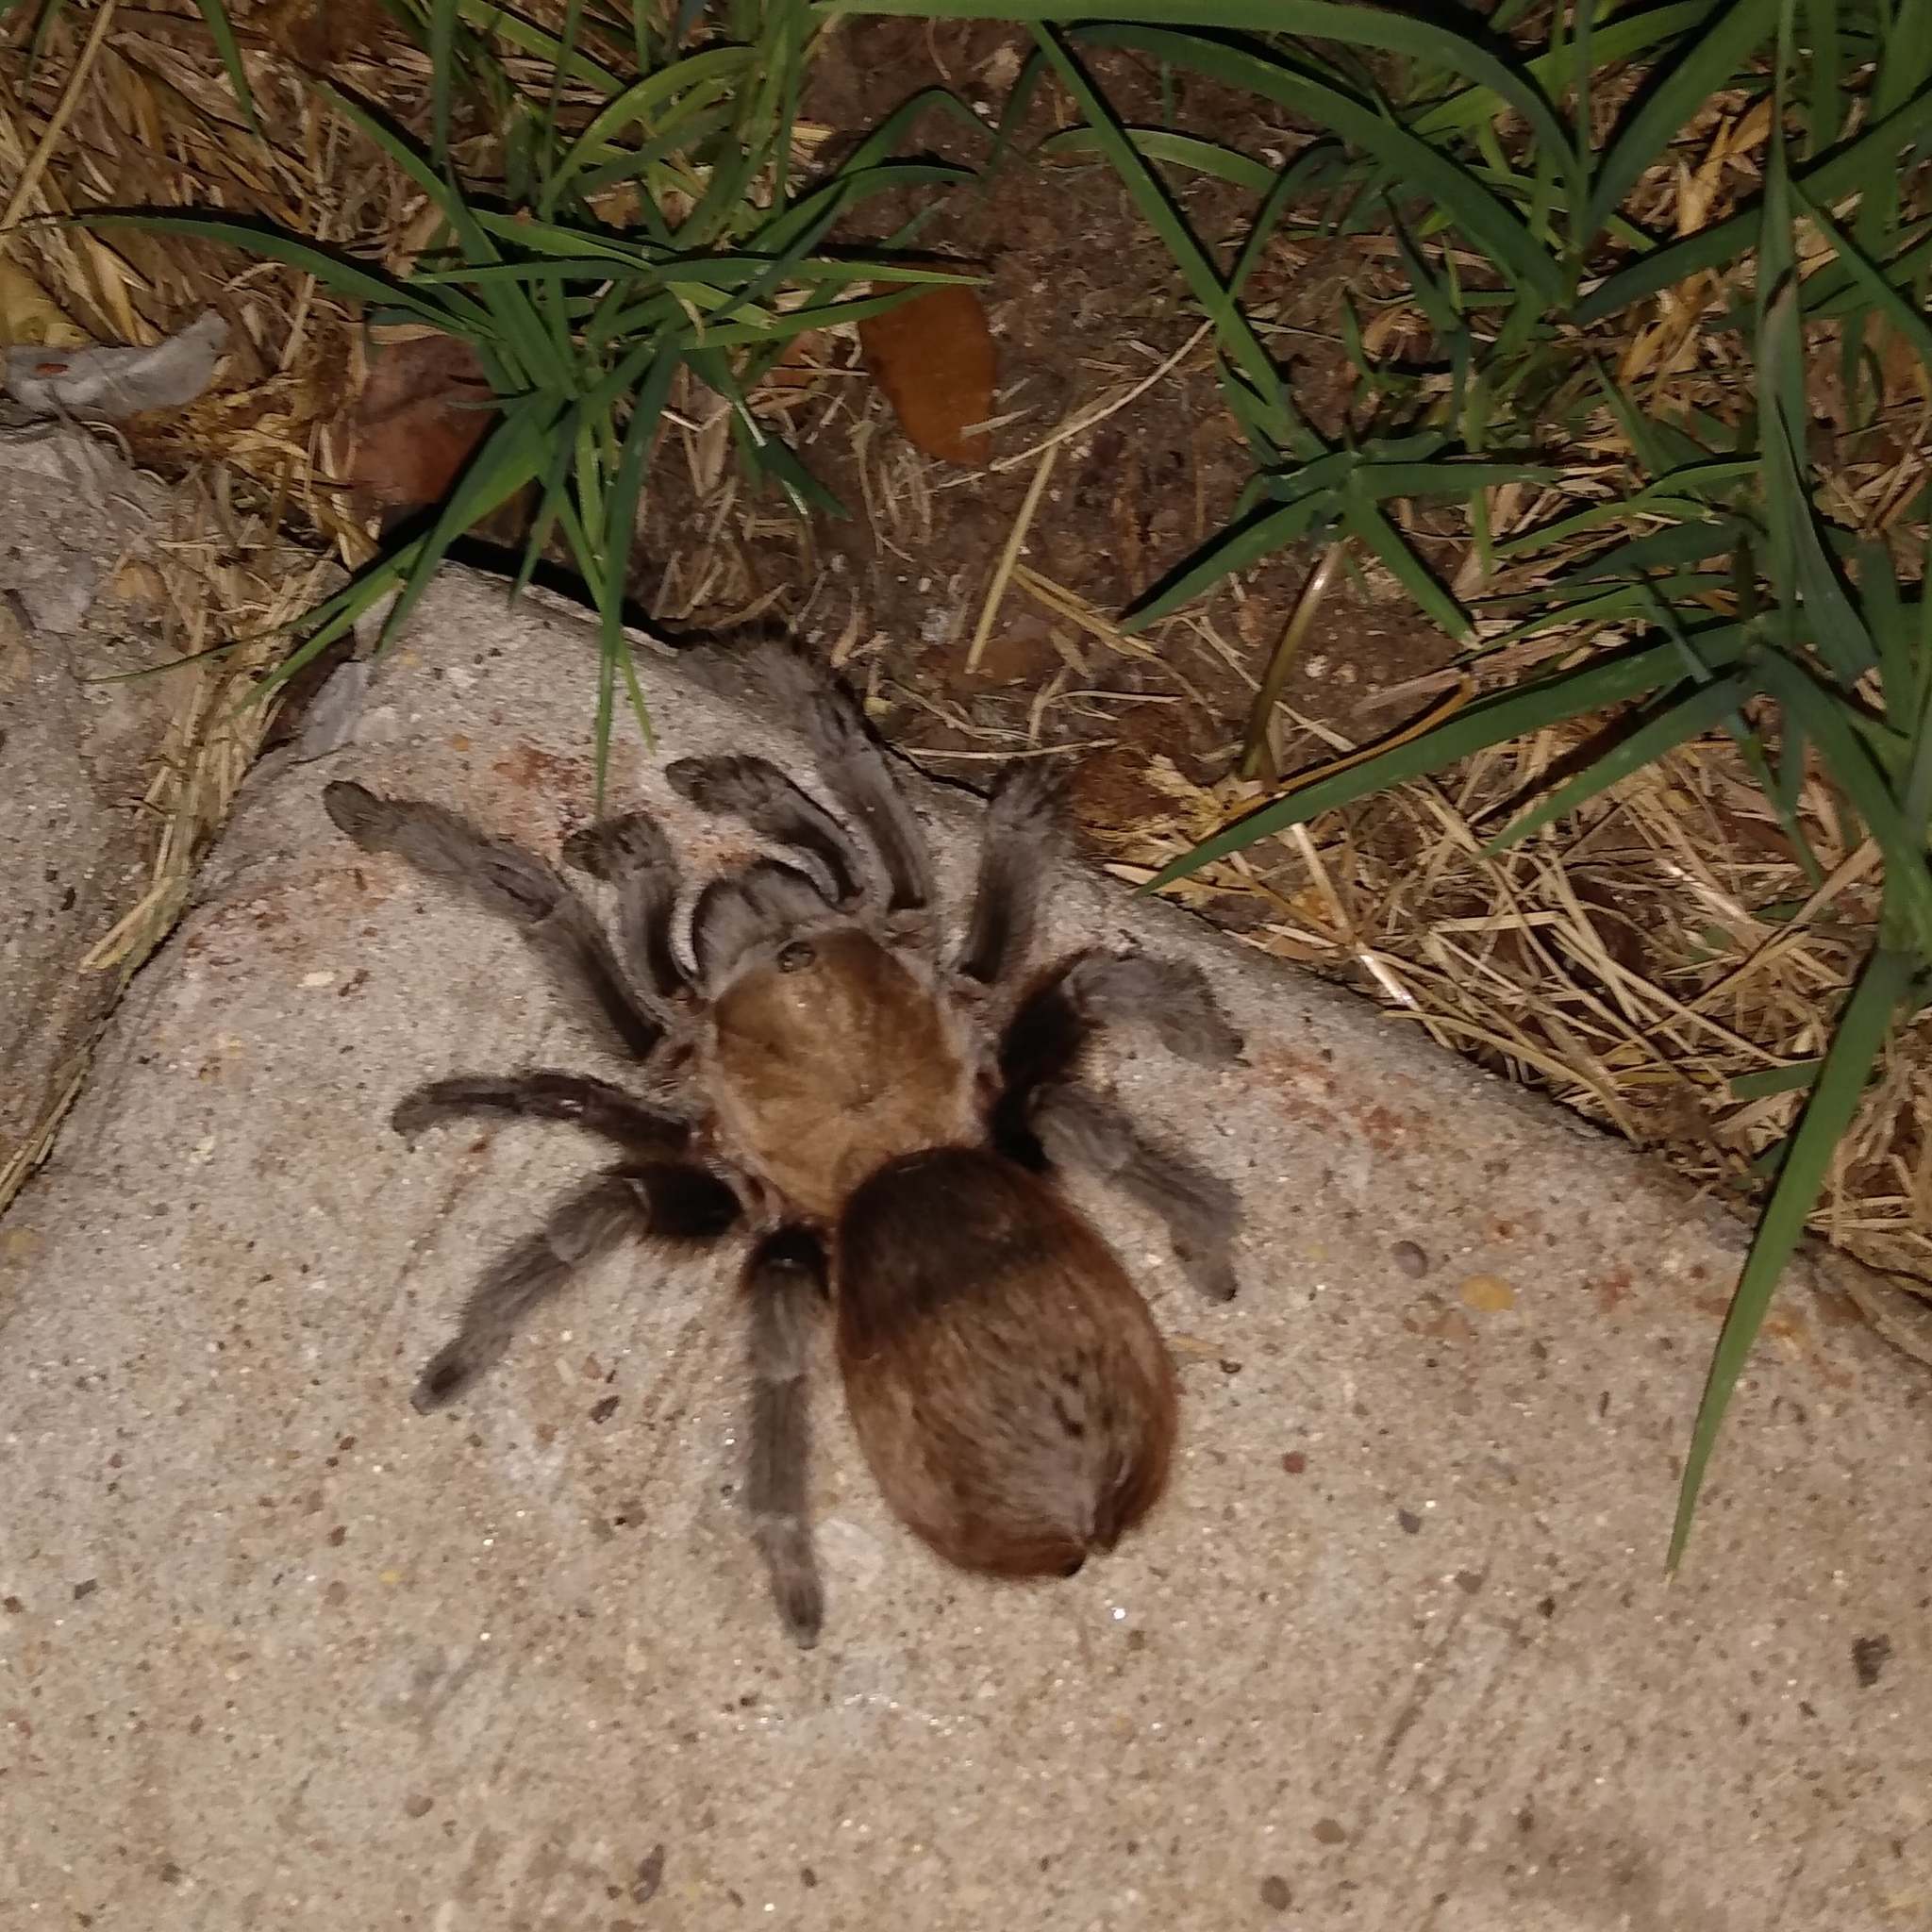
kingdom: Animalia
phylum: Arthropoda
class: Arachnida
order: Araneae
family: Theraphosidae
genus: Aphonopelma
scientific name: Aphonopelma hentzi
